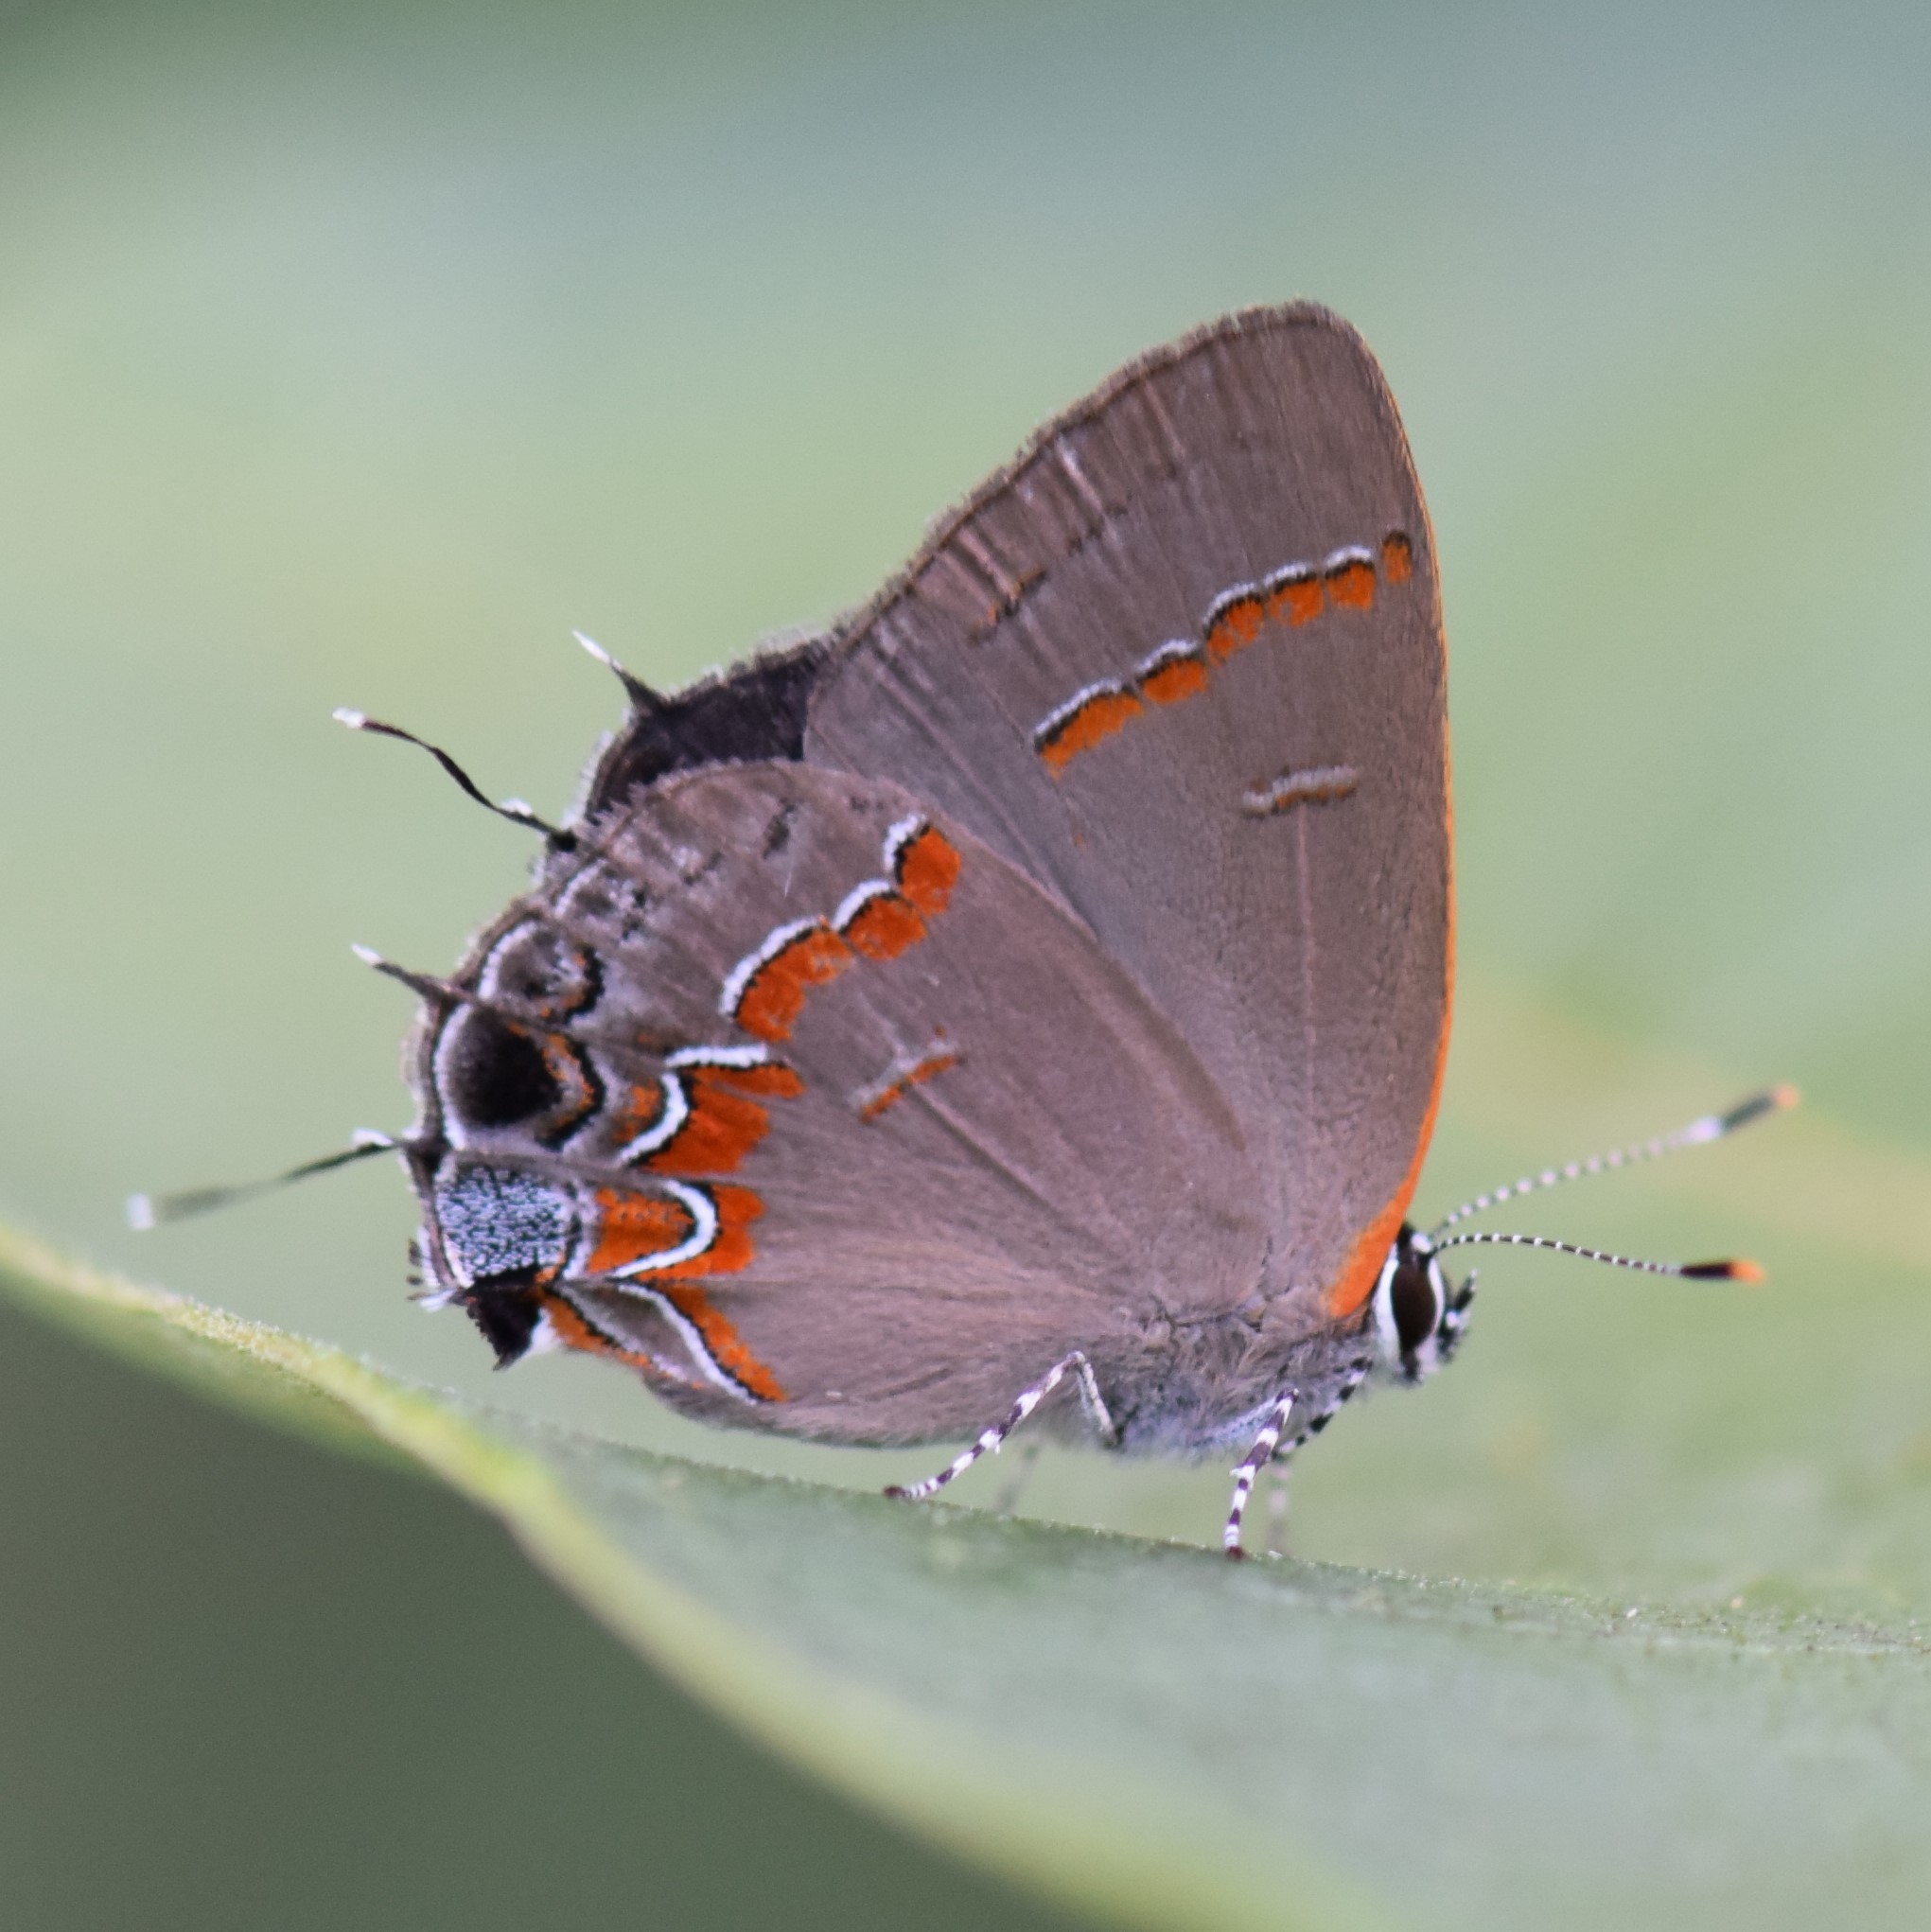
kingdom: Animalia
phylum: Arthropoda
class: Insecta
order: Lepidoptera
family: Lycaenidae
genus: Calycopis
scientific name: Calycopis cecrops
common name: Red-banded hairstreak
